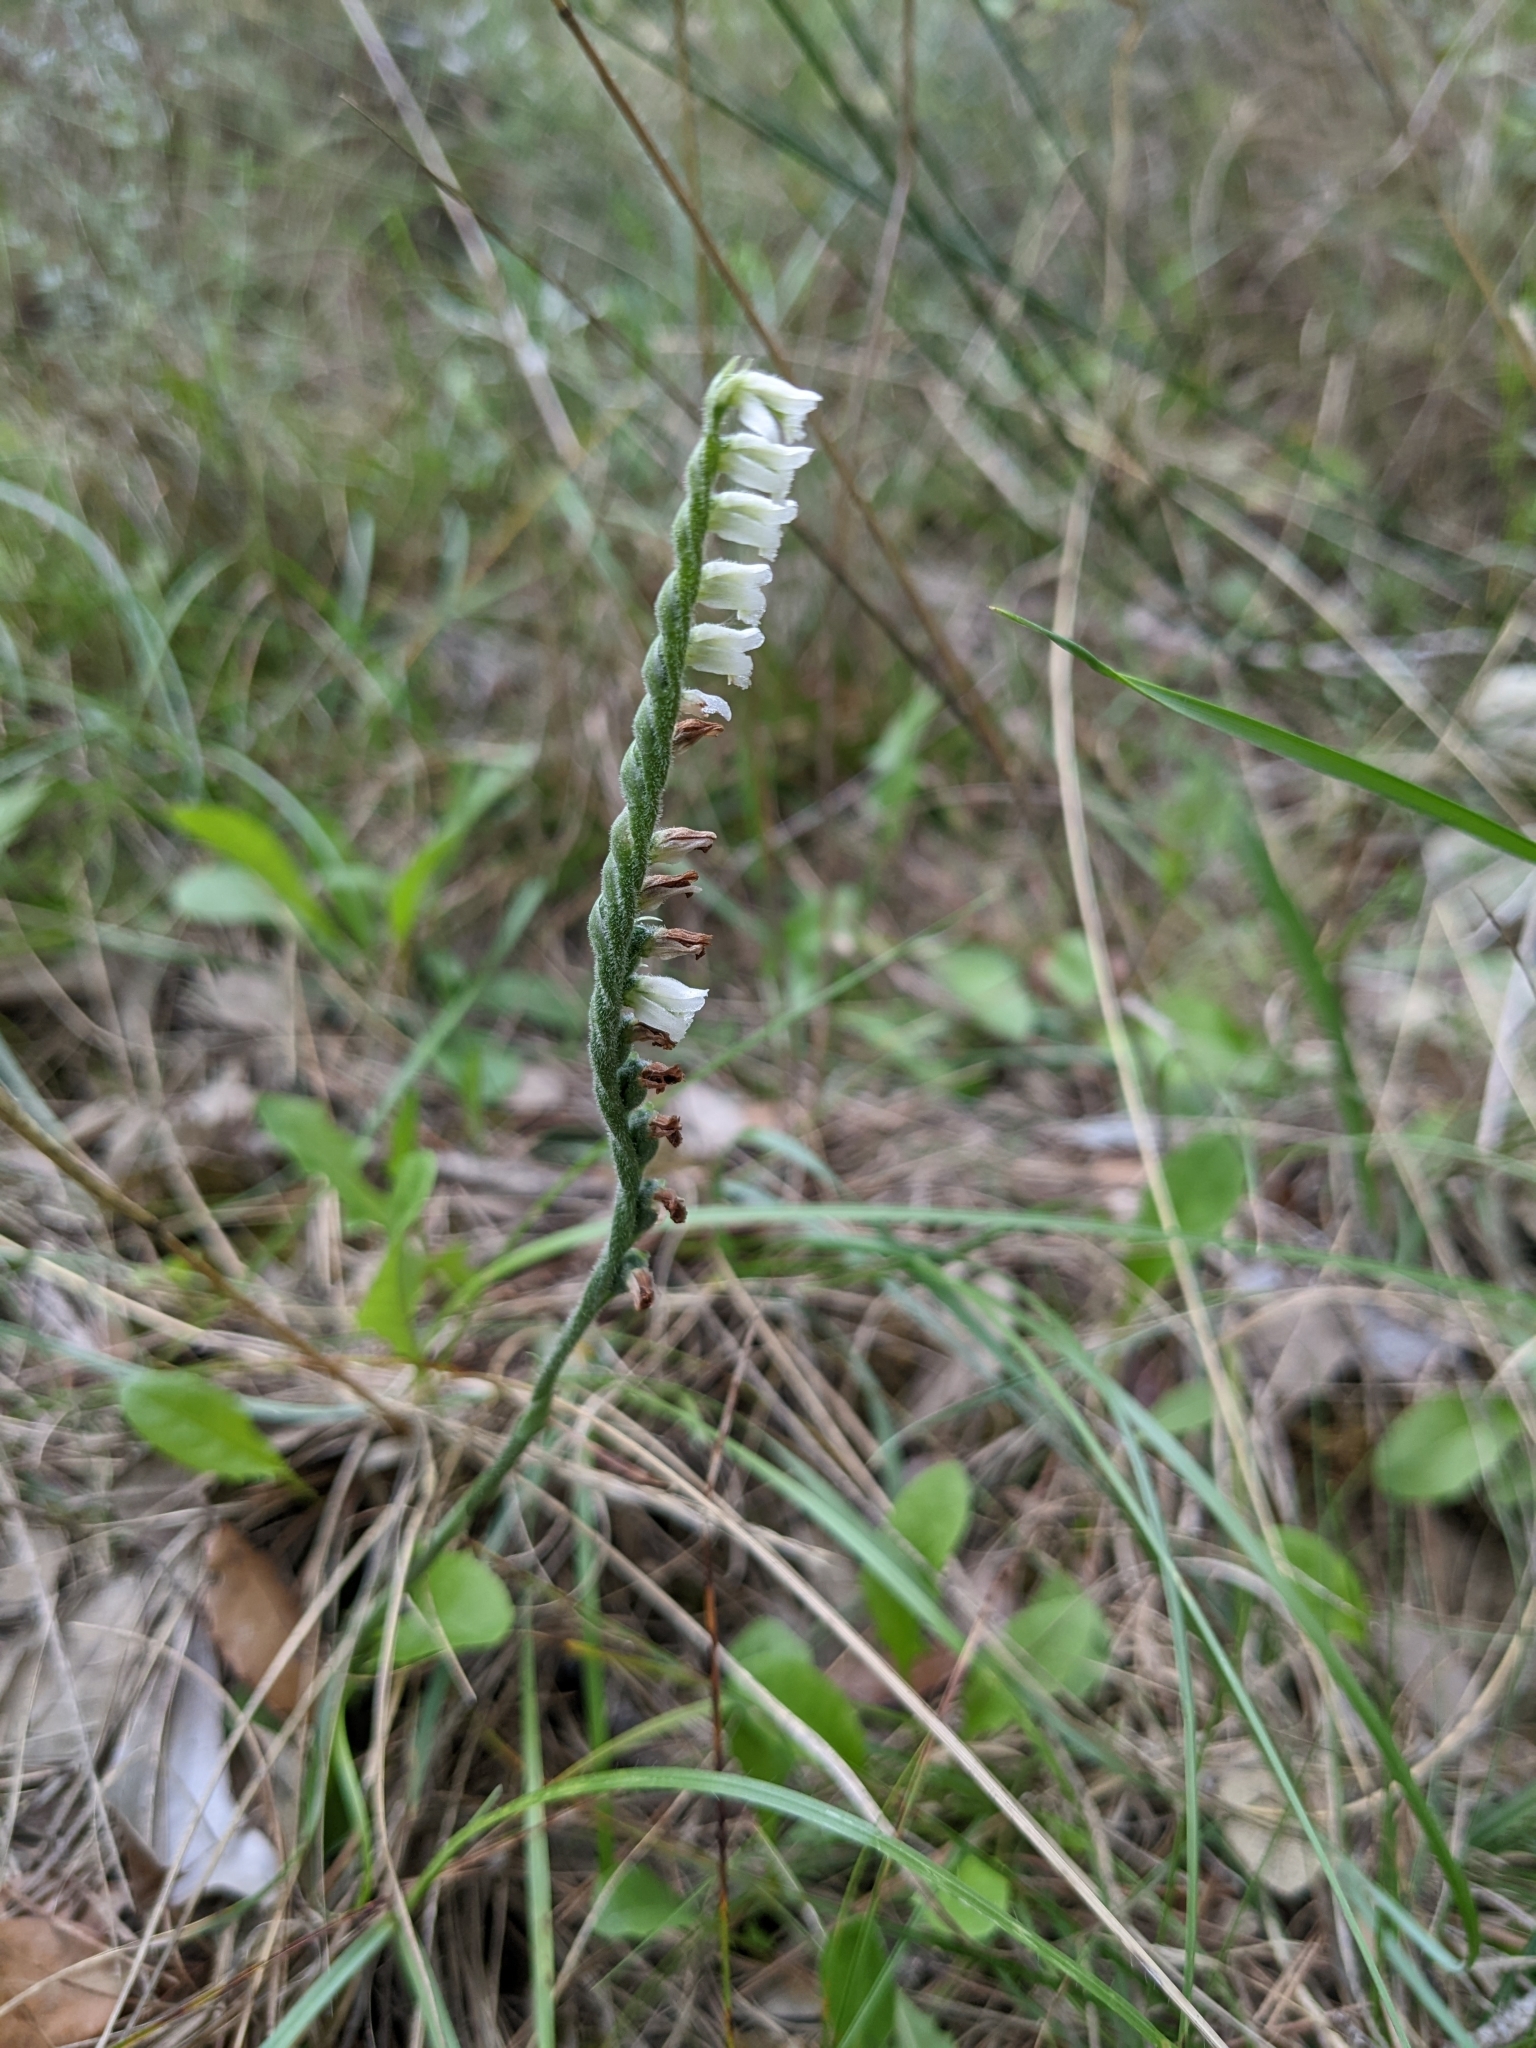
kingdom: Plantae
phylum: Tracheophyta
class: Liliopsida
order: Asparagales
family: Orchidaceae
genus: Spiranthes
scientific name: Spiranthes spiralis
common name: Autumn lady's-tresses
